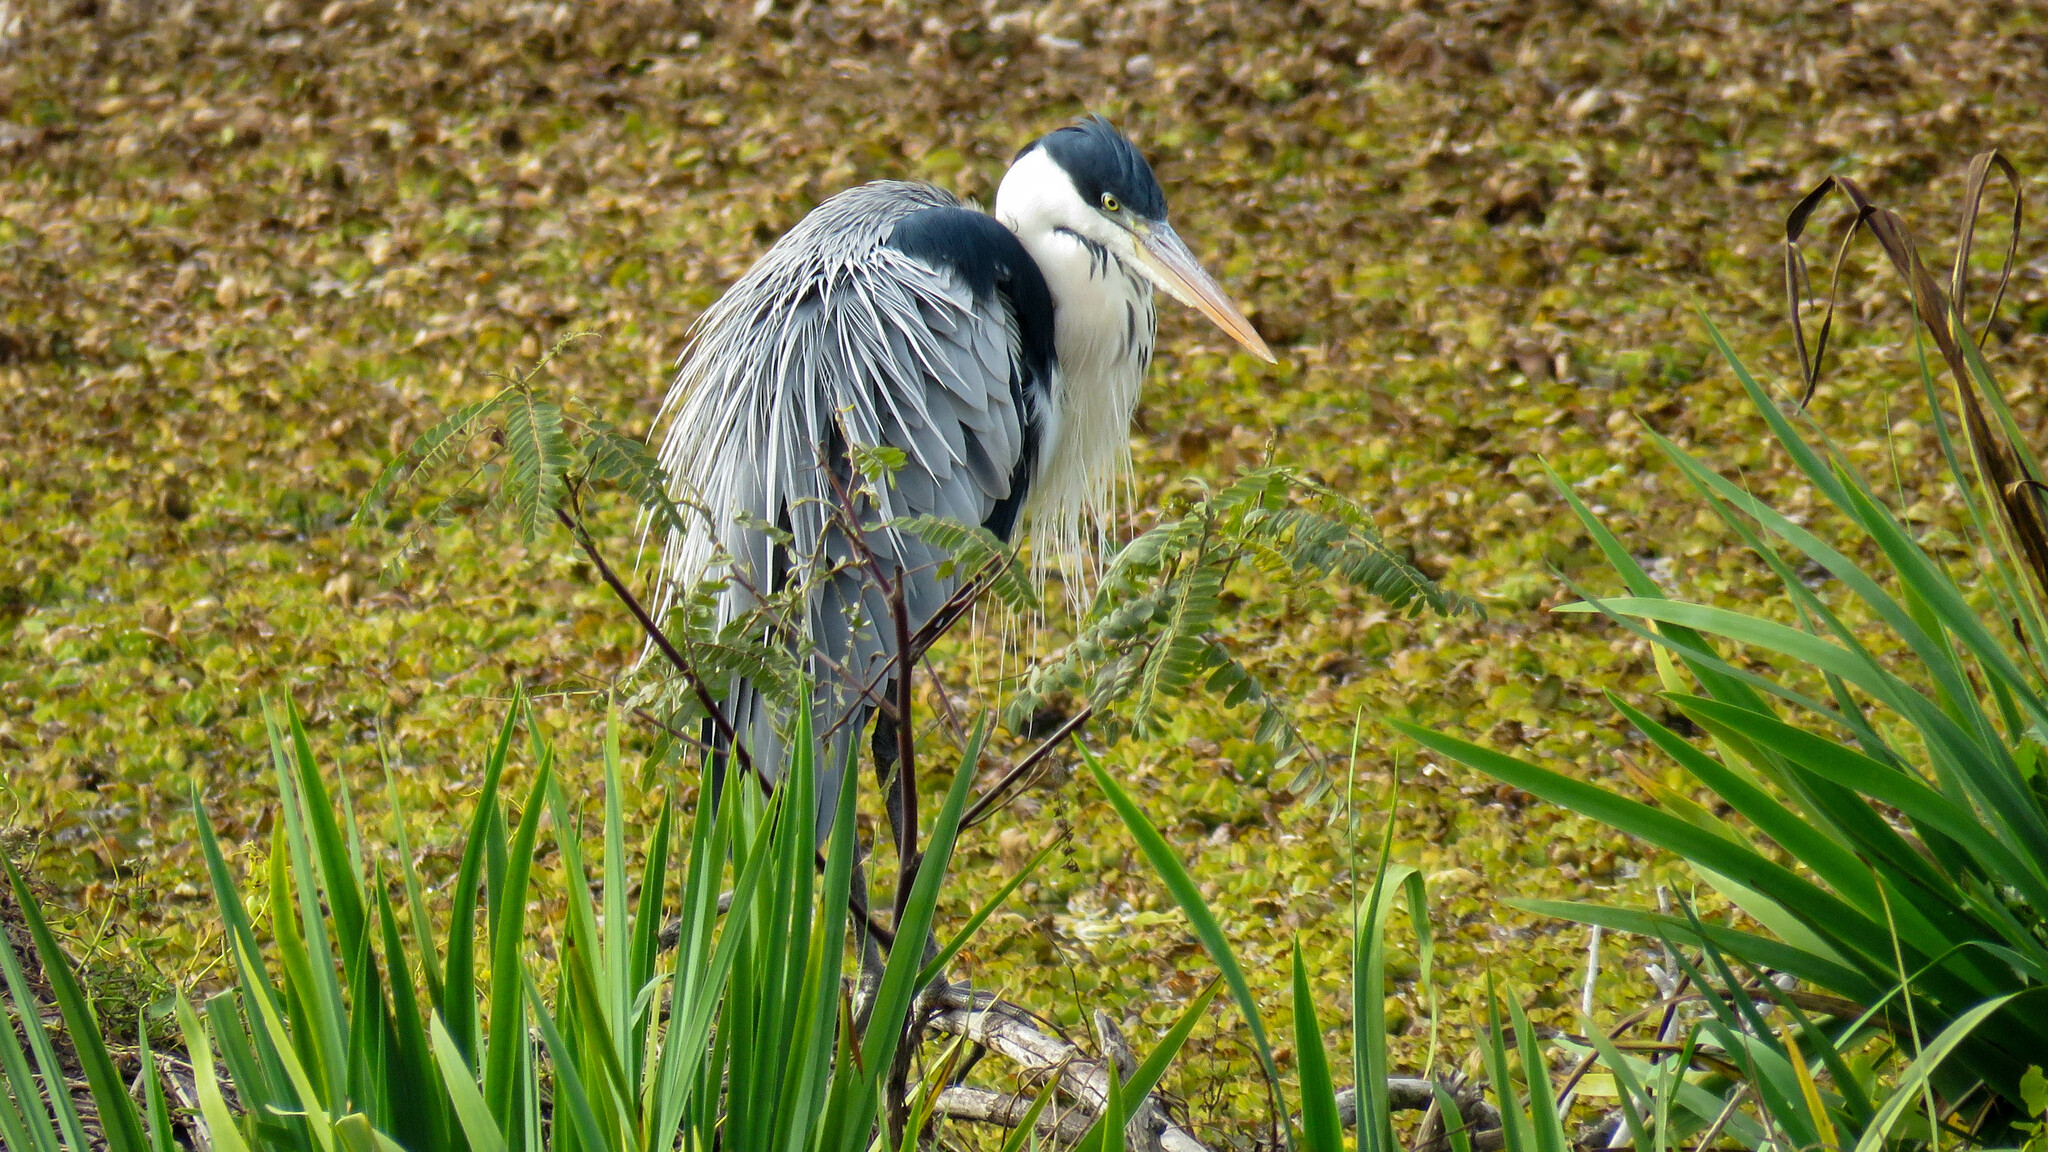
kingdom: Animalia
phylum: Chordata
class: Aves
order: Pelecaniformes
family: Ardeidae
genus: Ardea
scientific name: Ardea cocoi
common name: Cocoi heron
